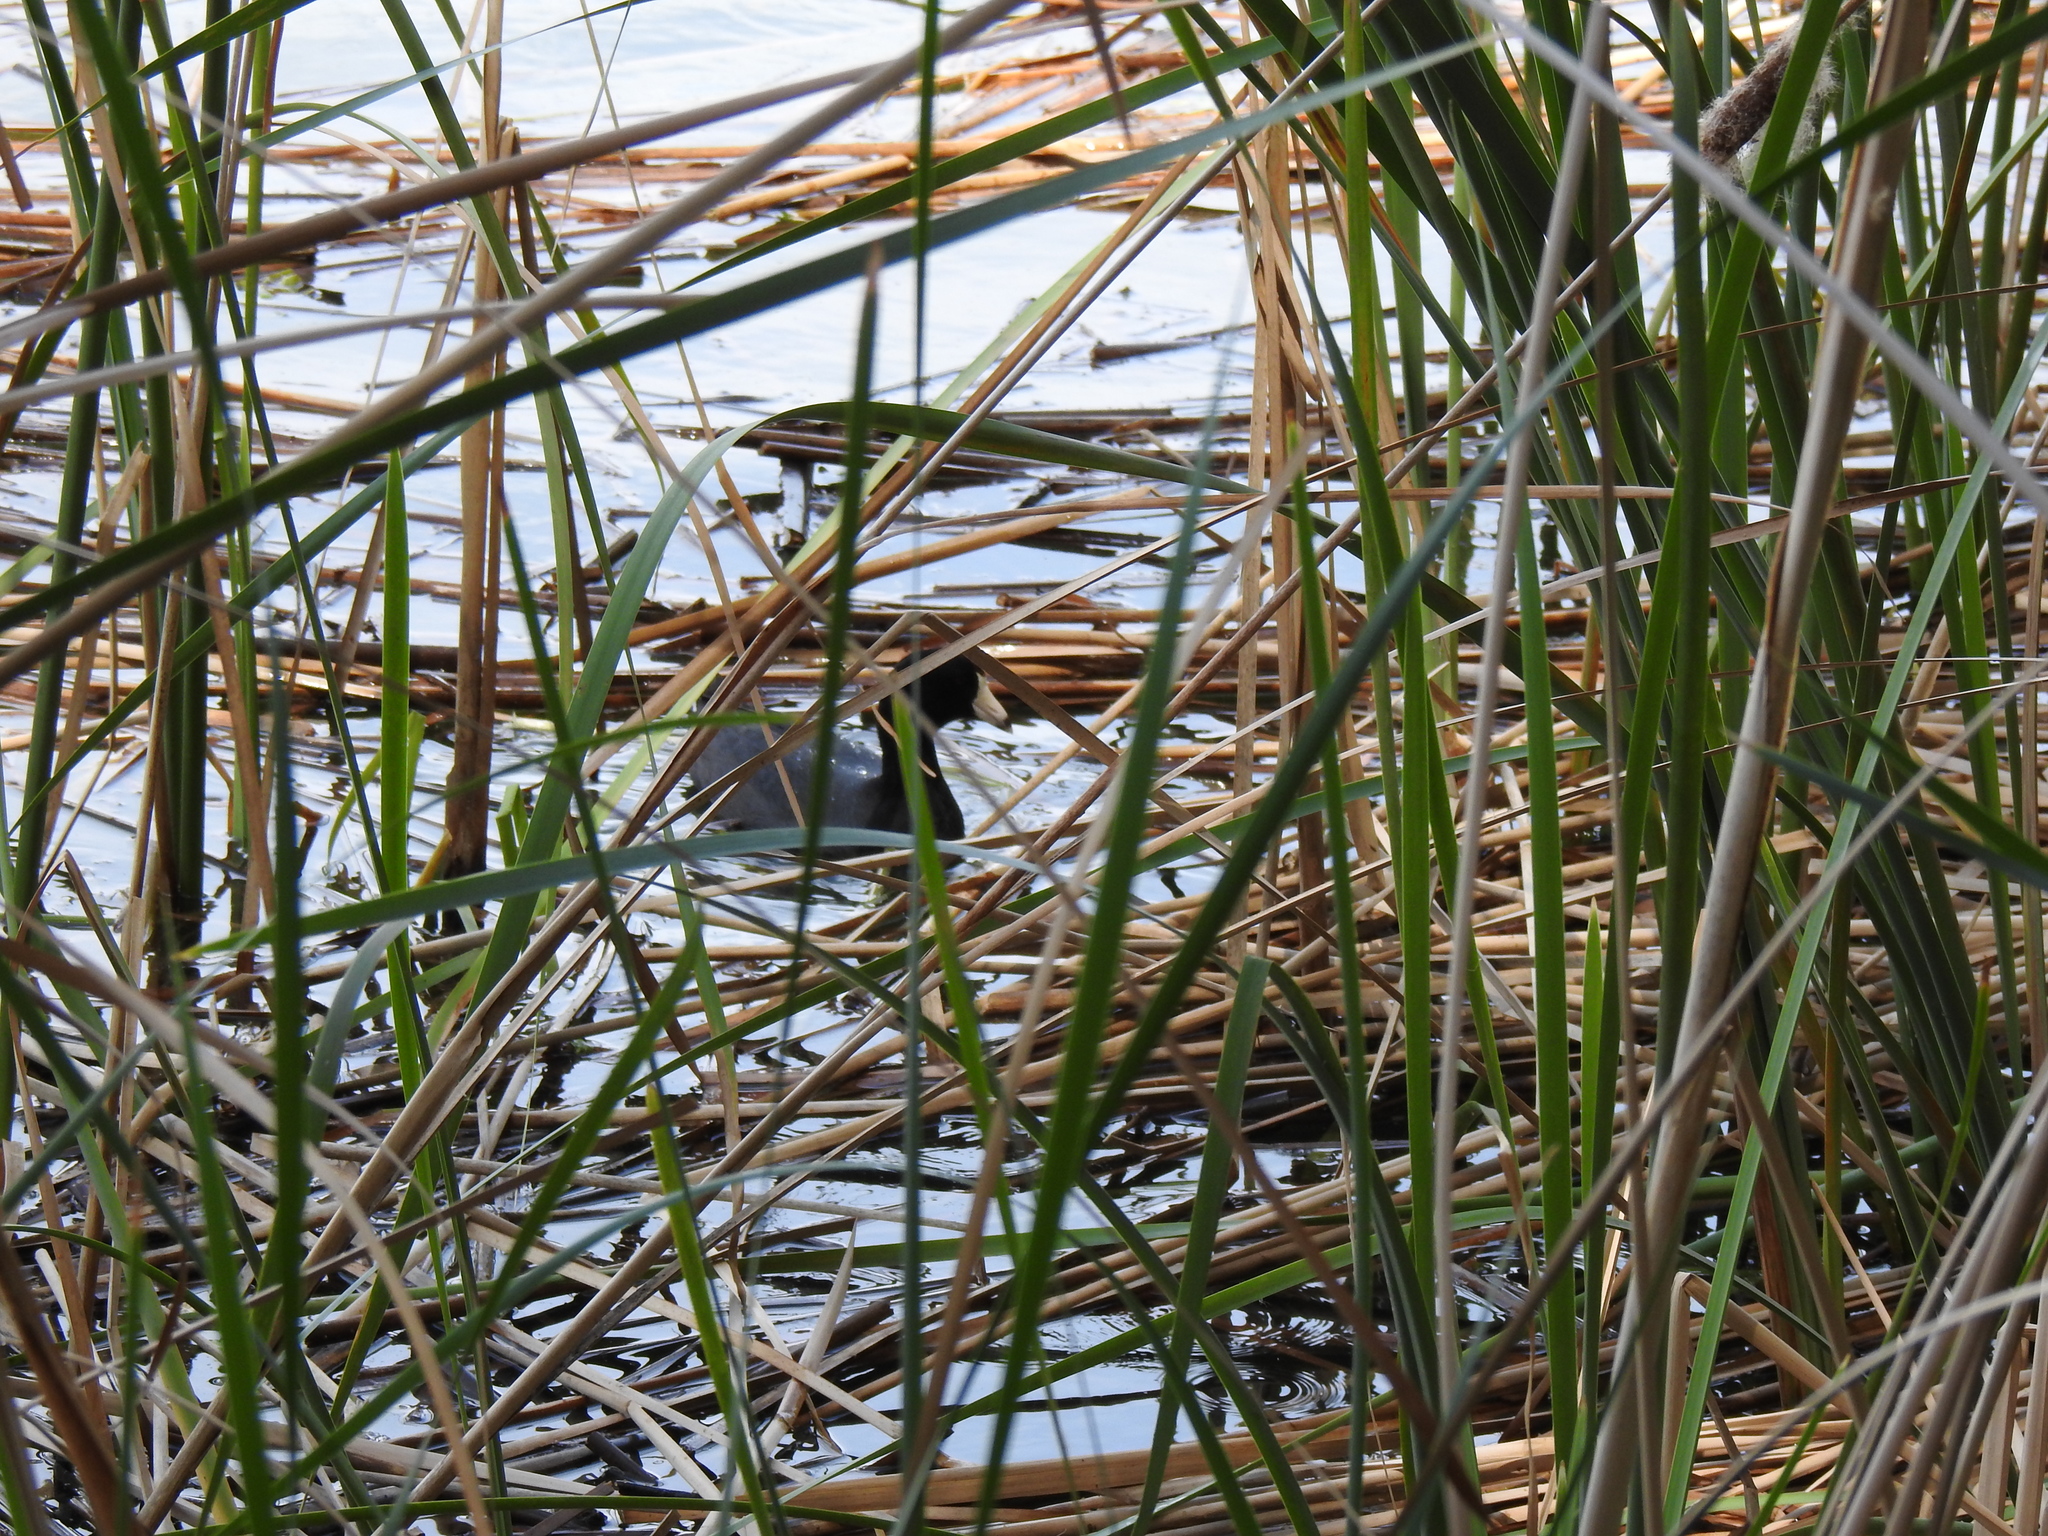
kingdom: Animalia
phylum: Chordata
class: Aves
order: Gruiformes
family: Rallidae
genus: Fulica
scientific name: Fulica americana
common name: American coot
